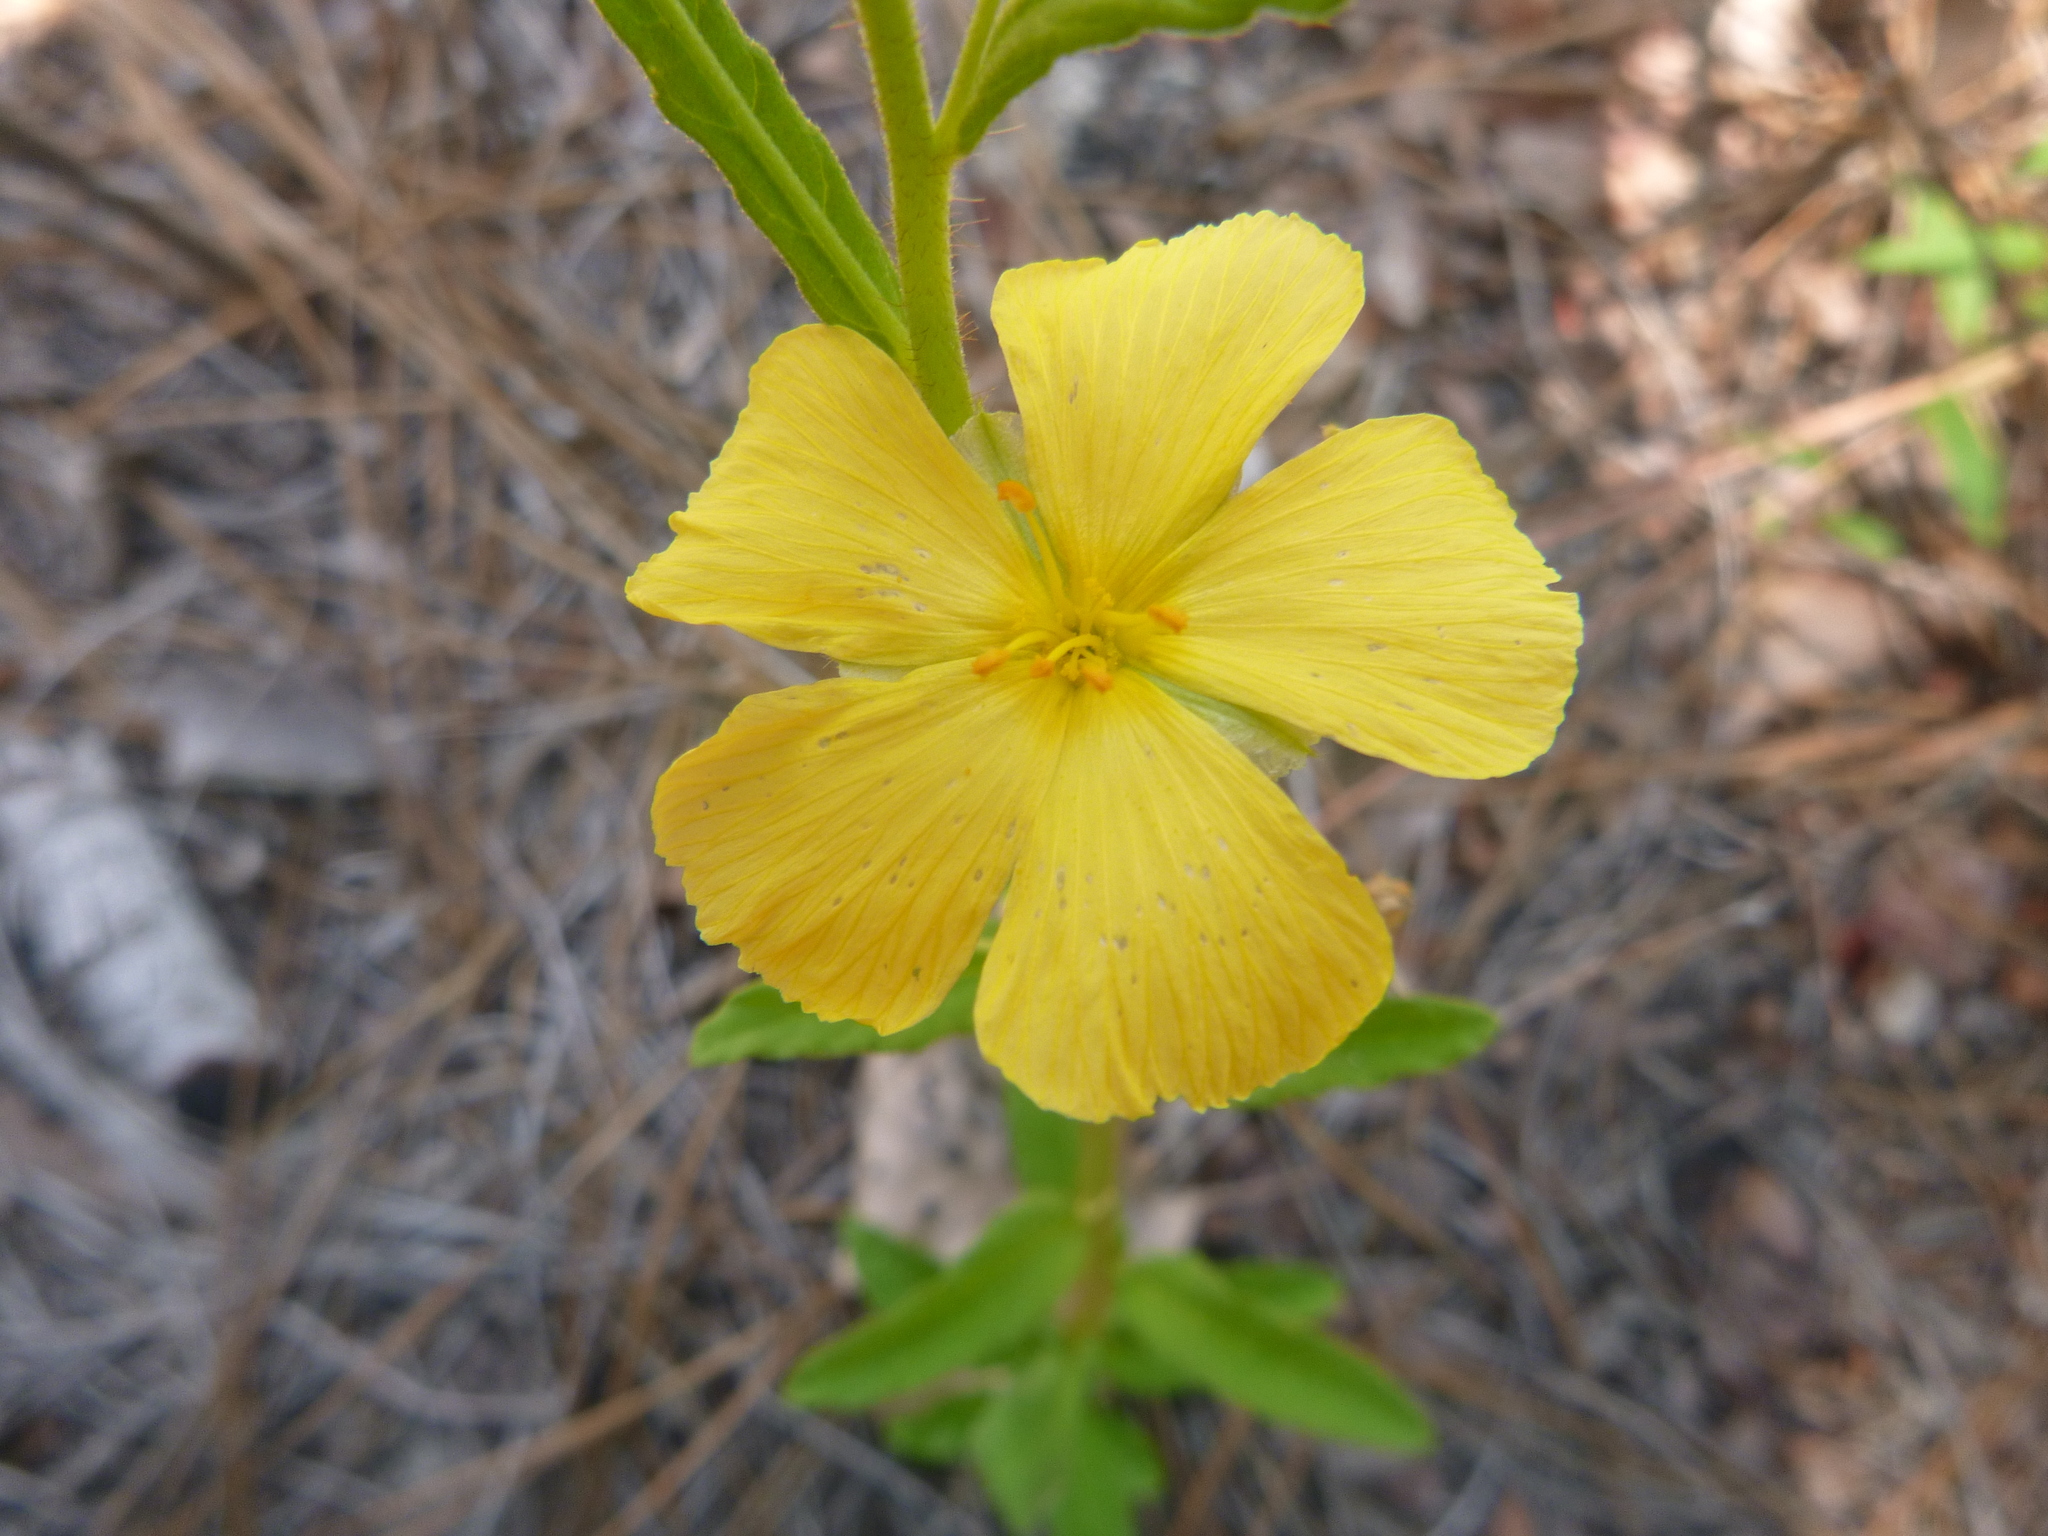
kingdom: Plantae
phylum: Tracheophyta
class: Magnoliopsida
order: Malpighiales
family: Turneraceae
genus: Piriqueta
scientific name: Piriqueta cistoides
